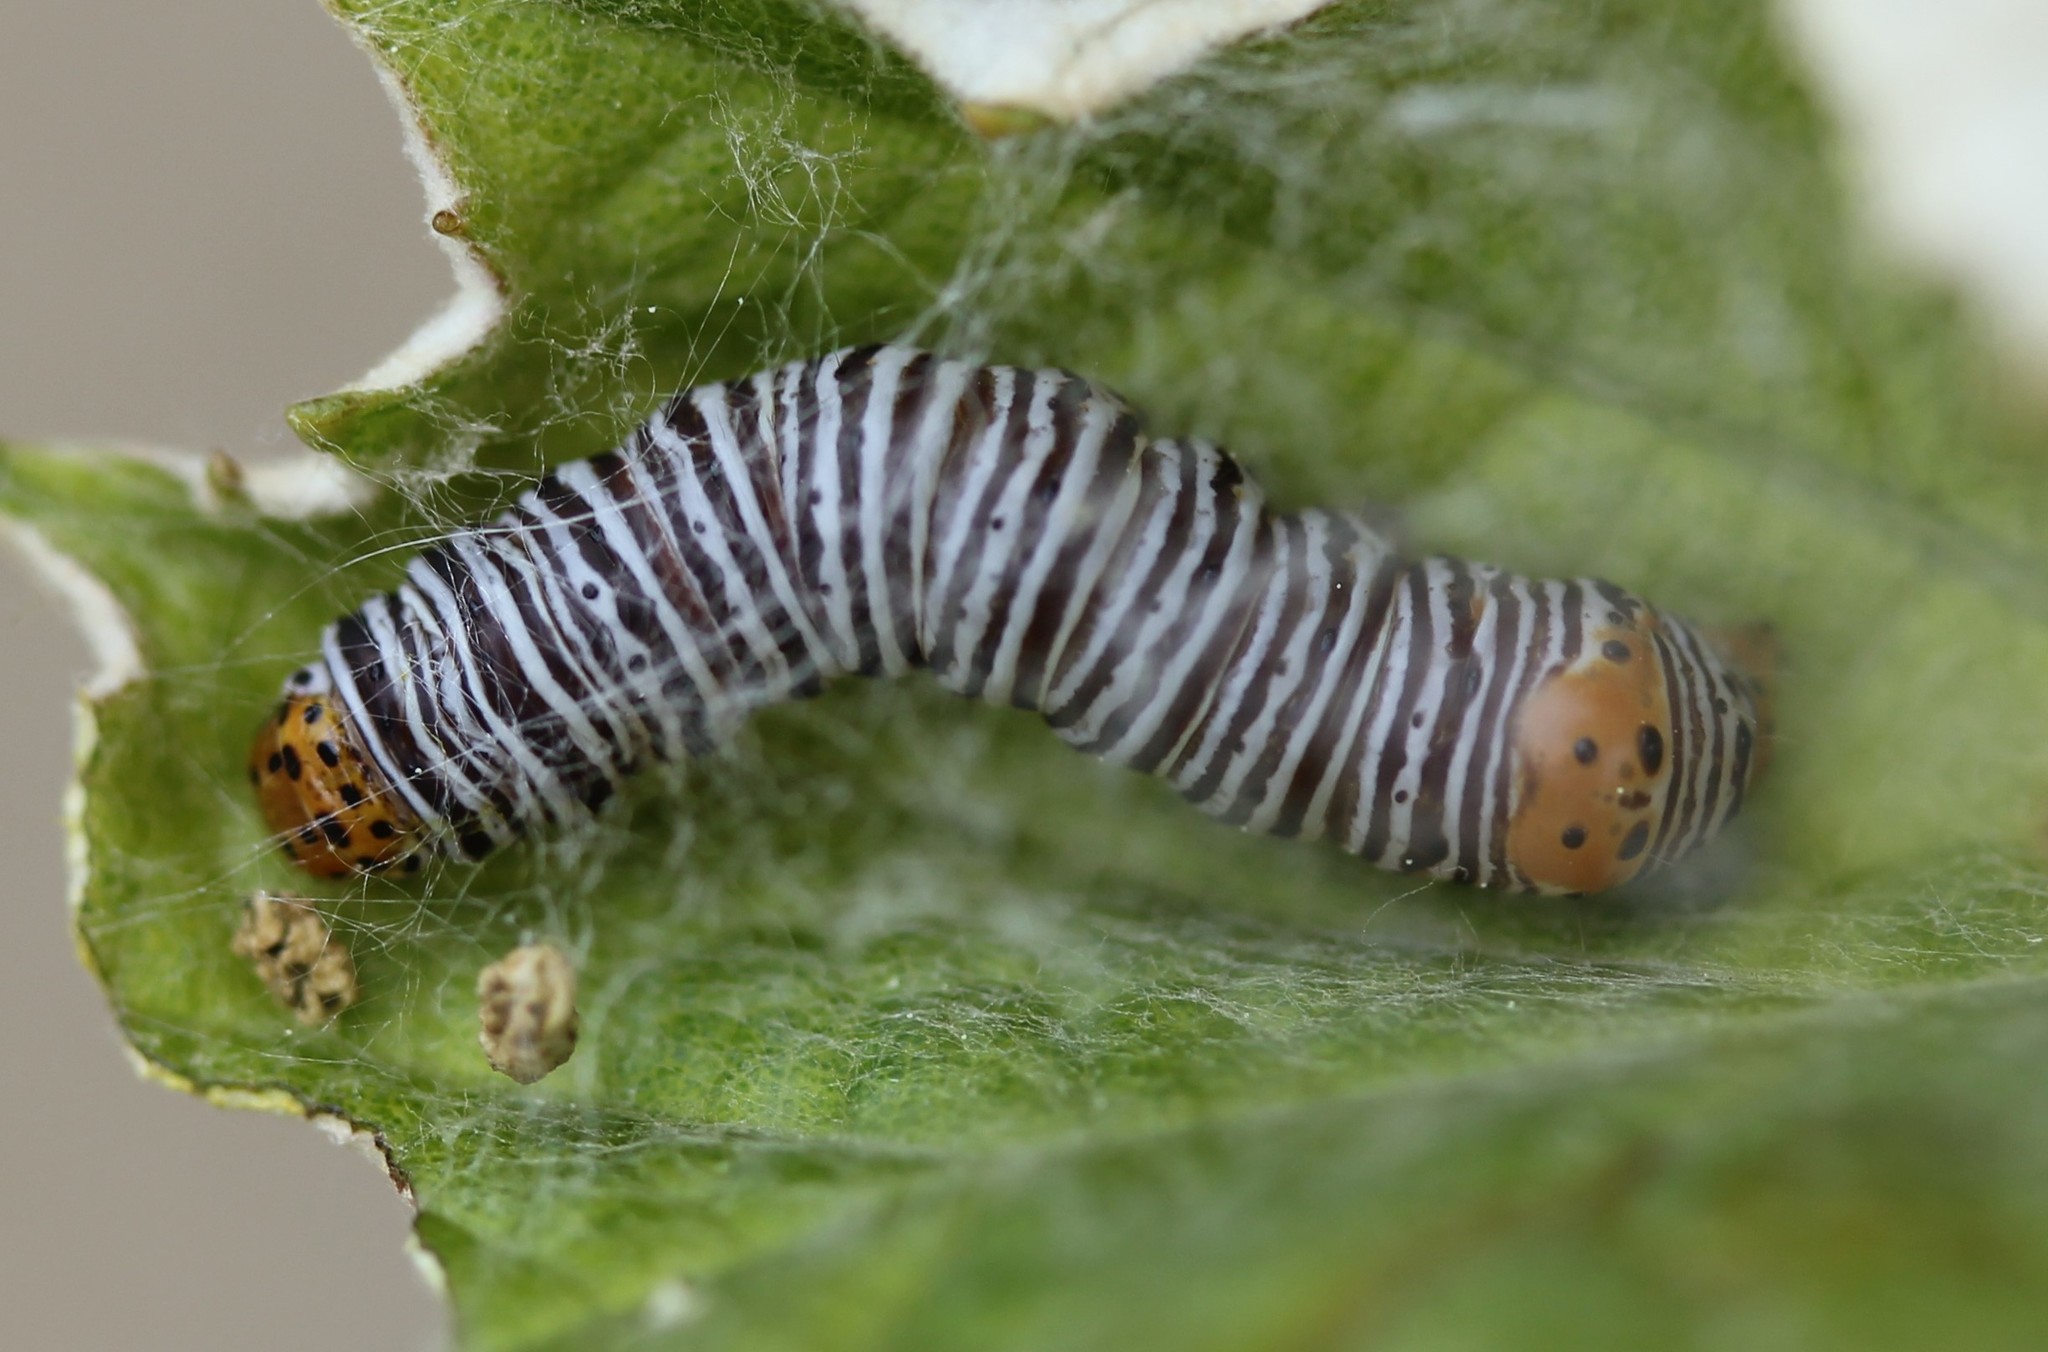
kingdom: Animalia
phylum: Arthropoda
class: Insecta
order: Lepidoptera
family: Noctuidae
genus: Psychomorpha
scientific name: Psychomorpha epimenis
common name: Grapevine epimenis moth
